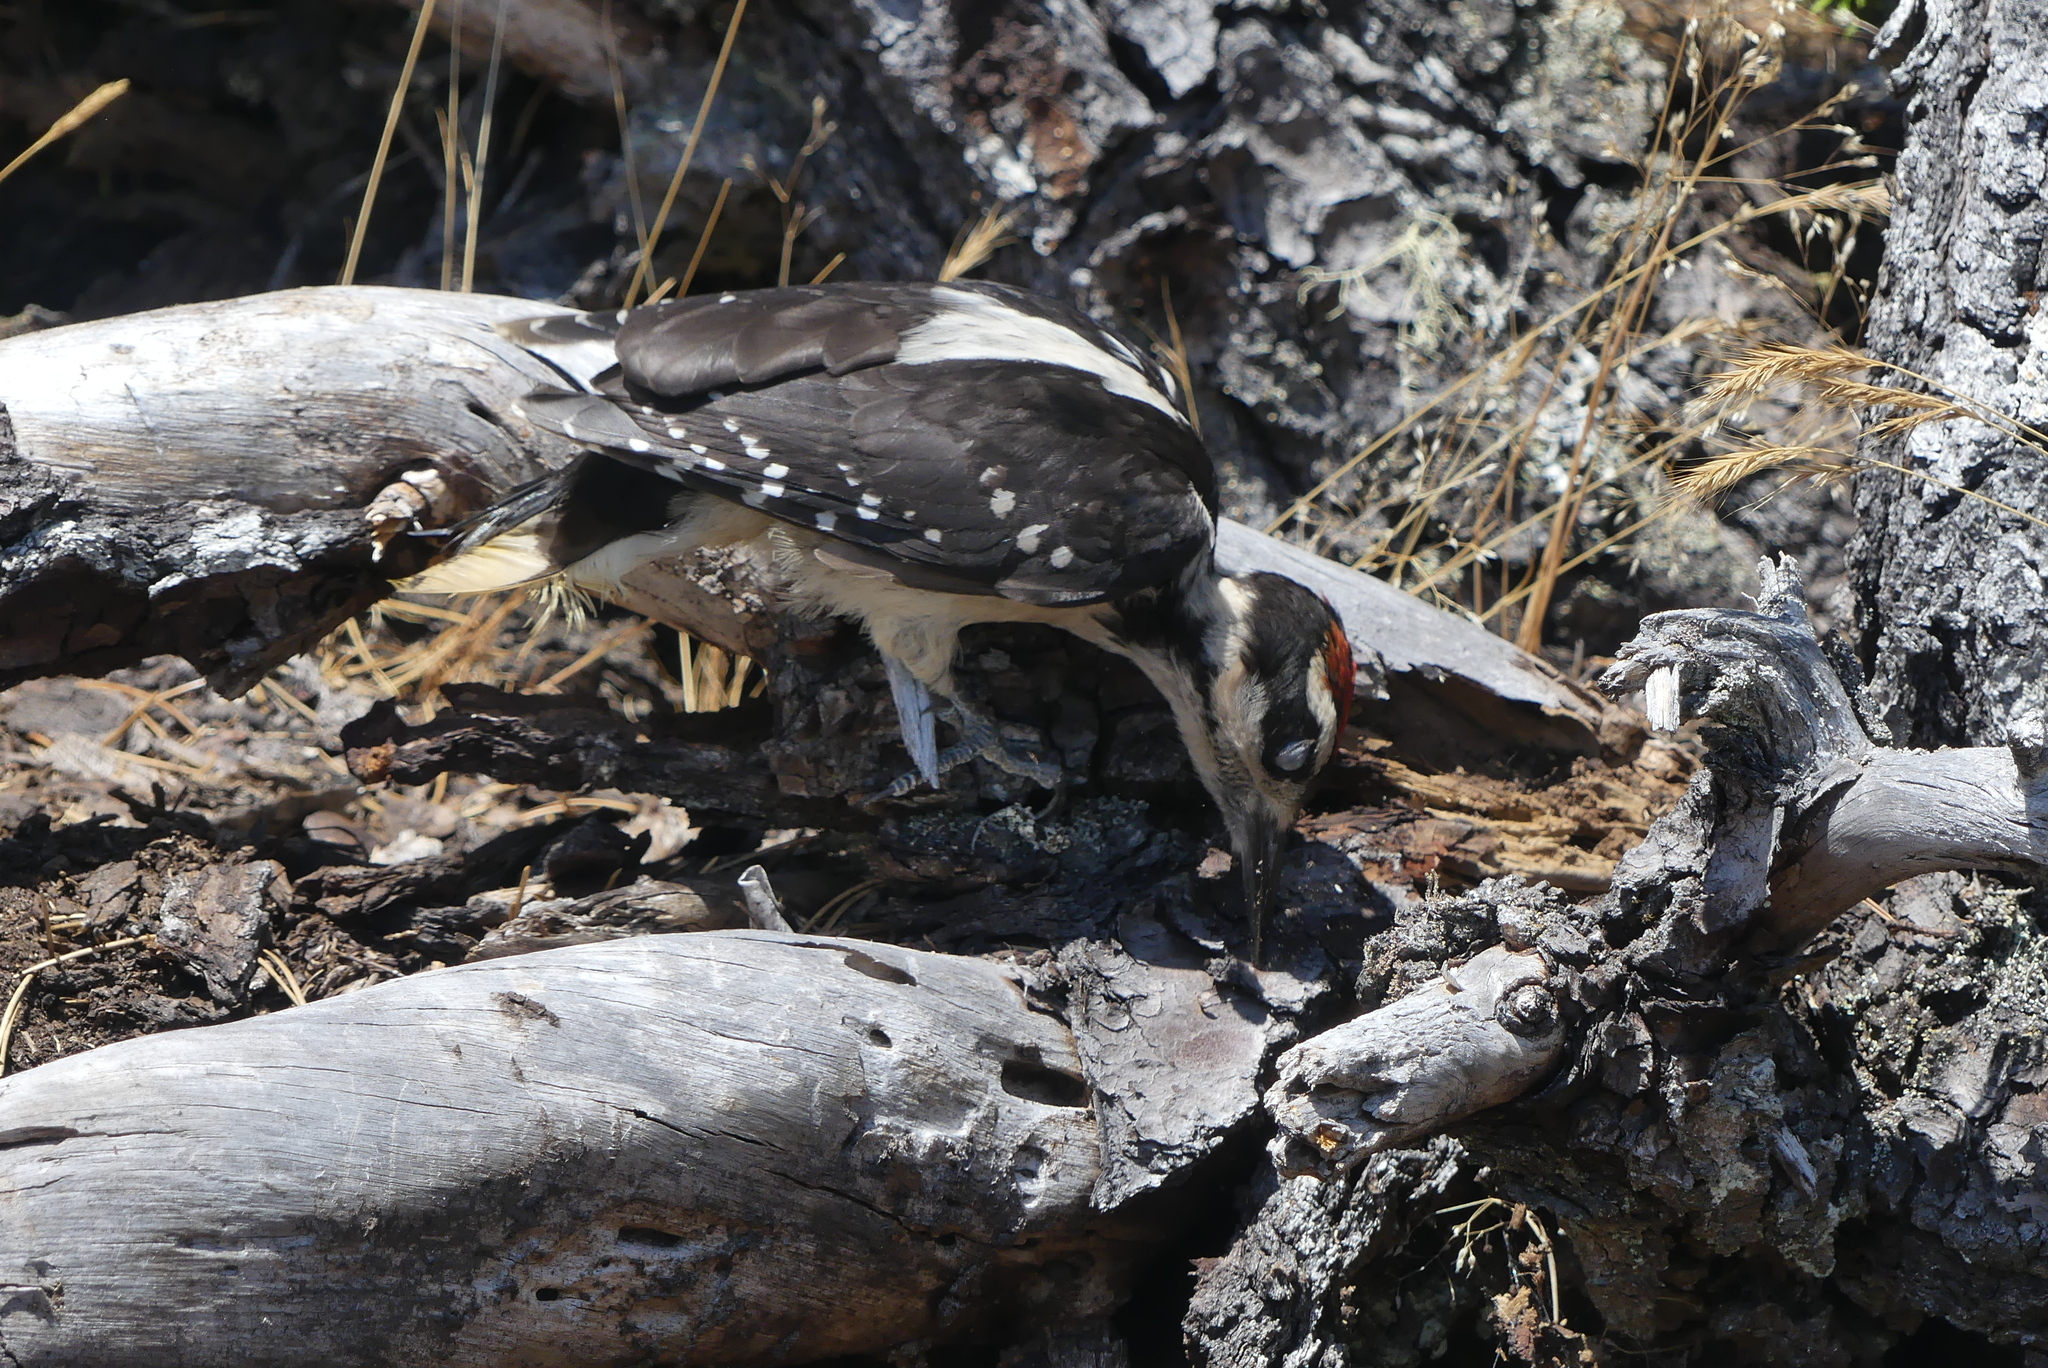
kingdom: Animalia
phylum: Chordata
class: Aves
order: Piciformes
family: Picidae
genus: Leuconotopicus
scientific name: Leuconotopicus villosus
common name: Hairy woodpecker
